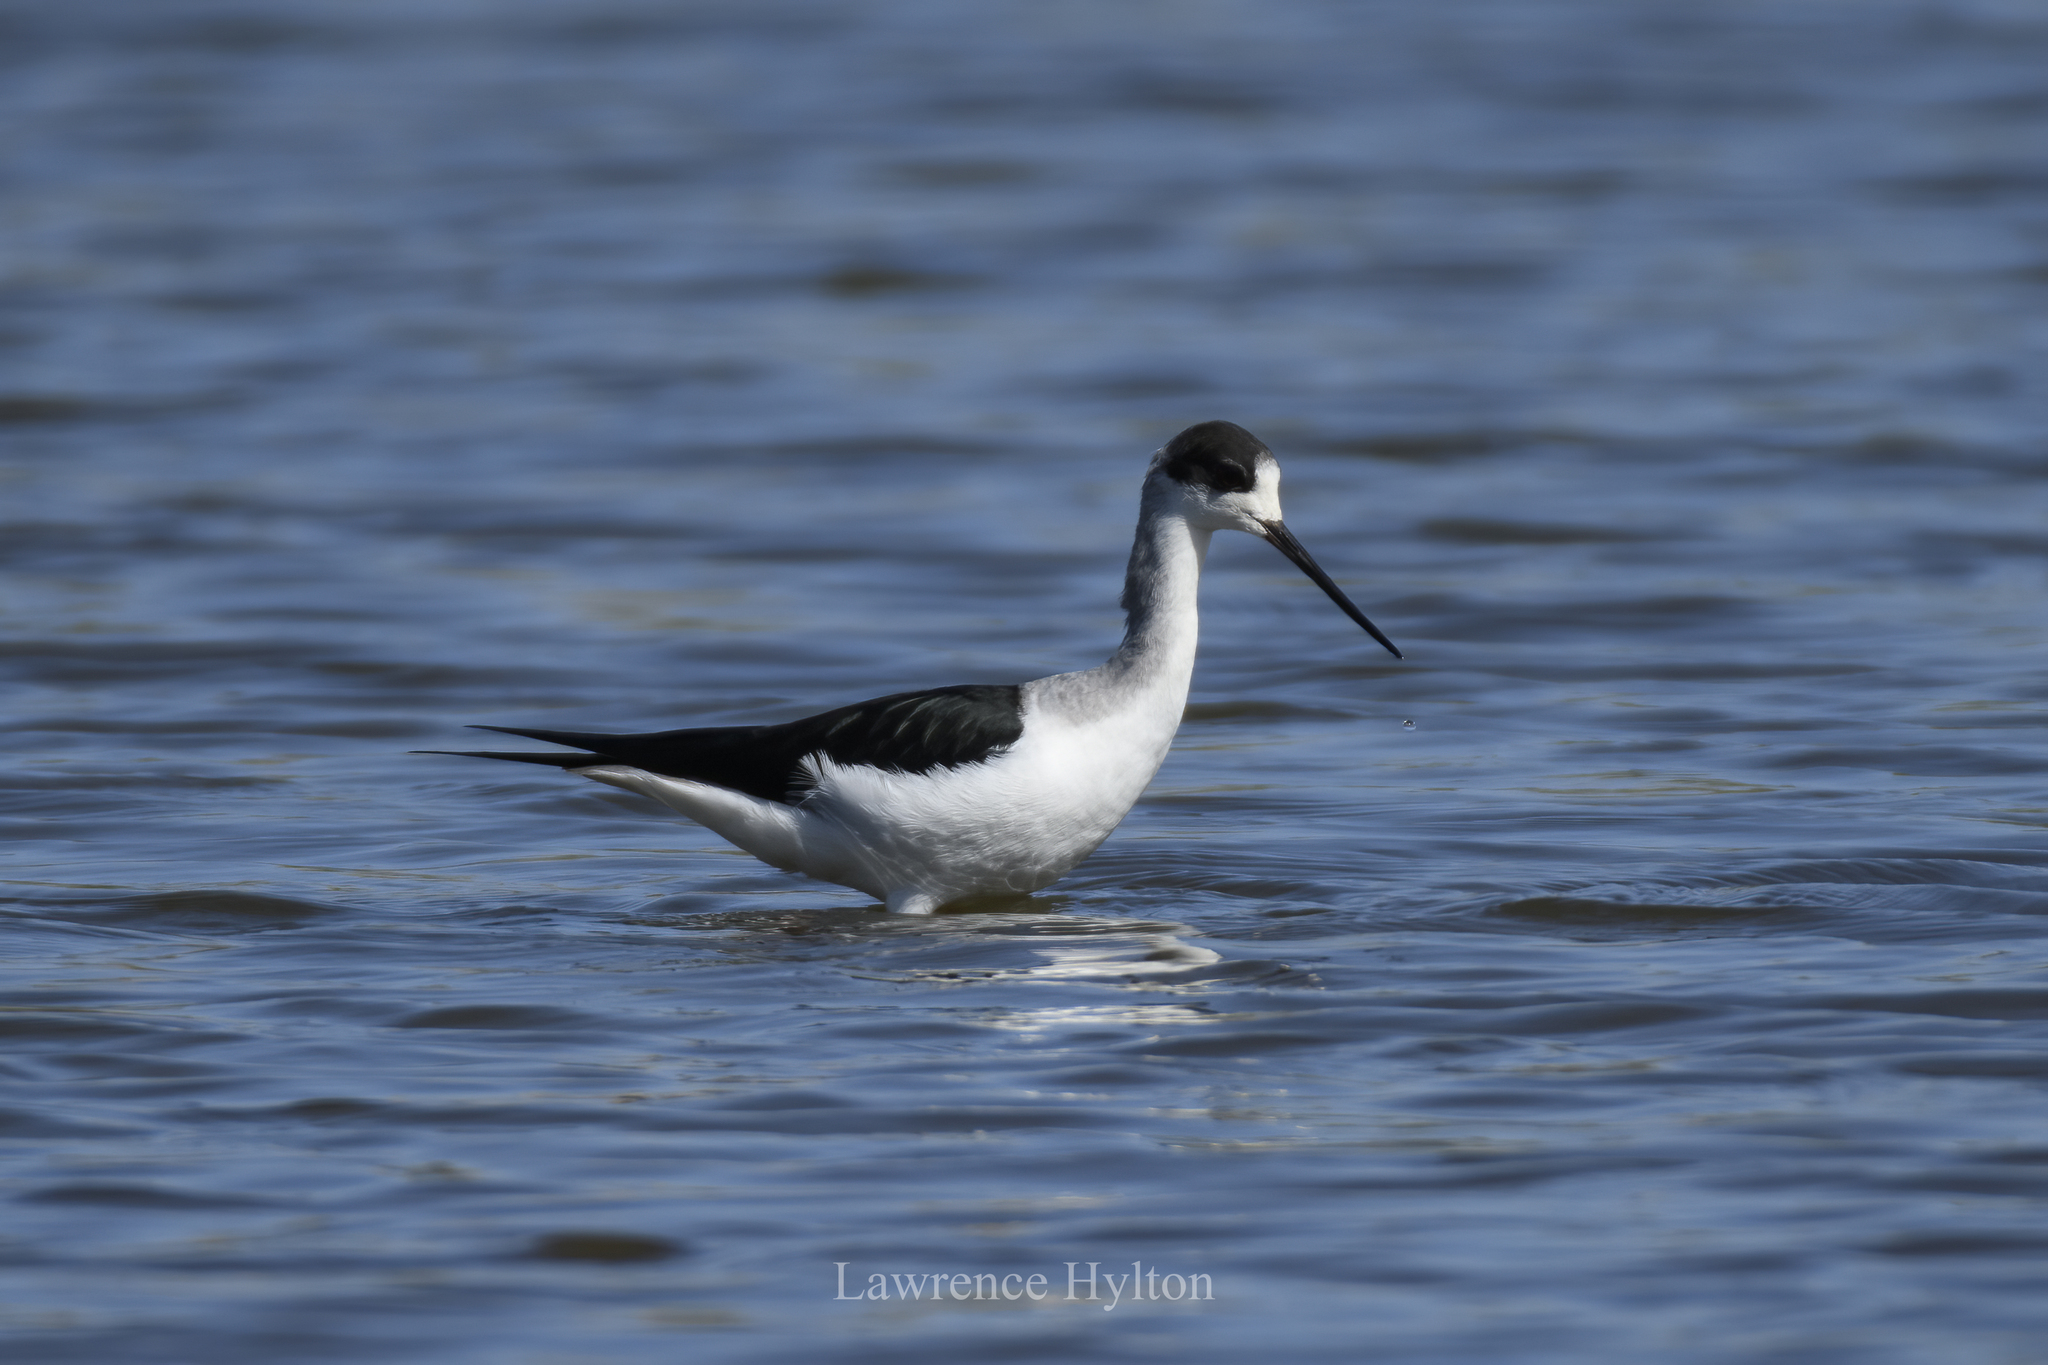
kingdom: Animalia
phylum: Chordata
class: Aves
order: Charadriiformes
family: Recurvirostridae
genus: Himantopus
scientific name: Himantopus himantopus
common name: Black-winged stilt
